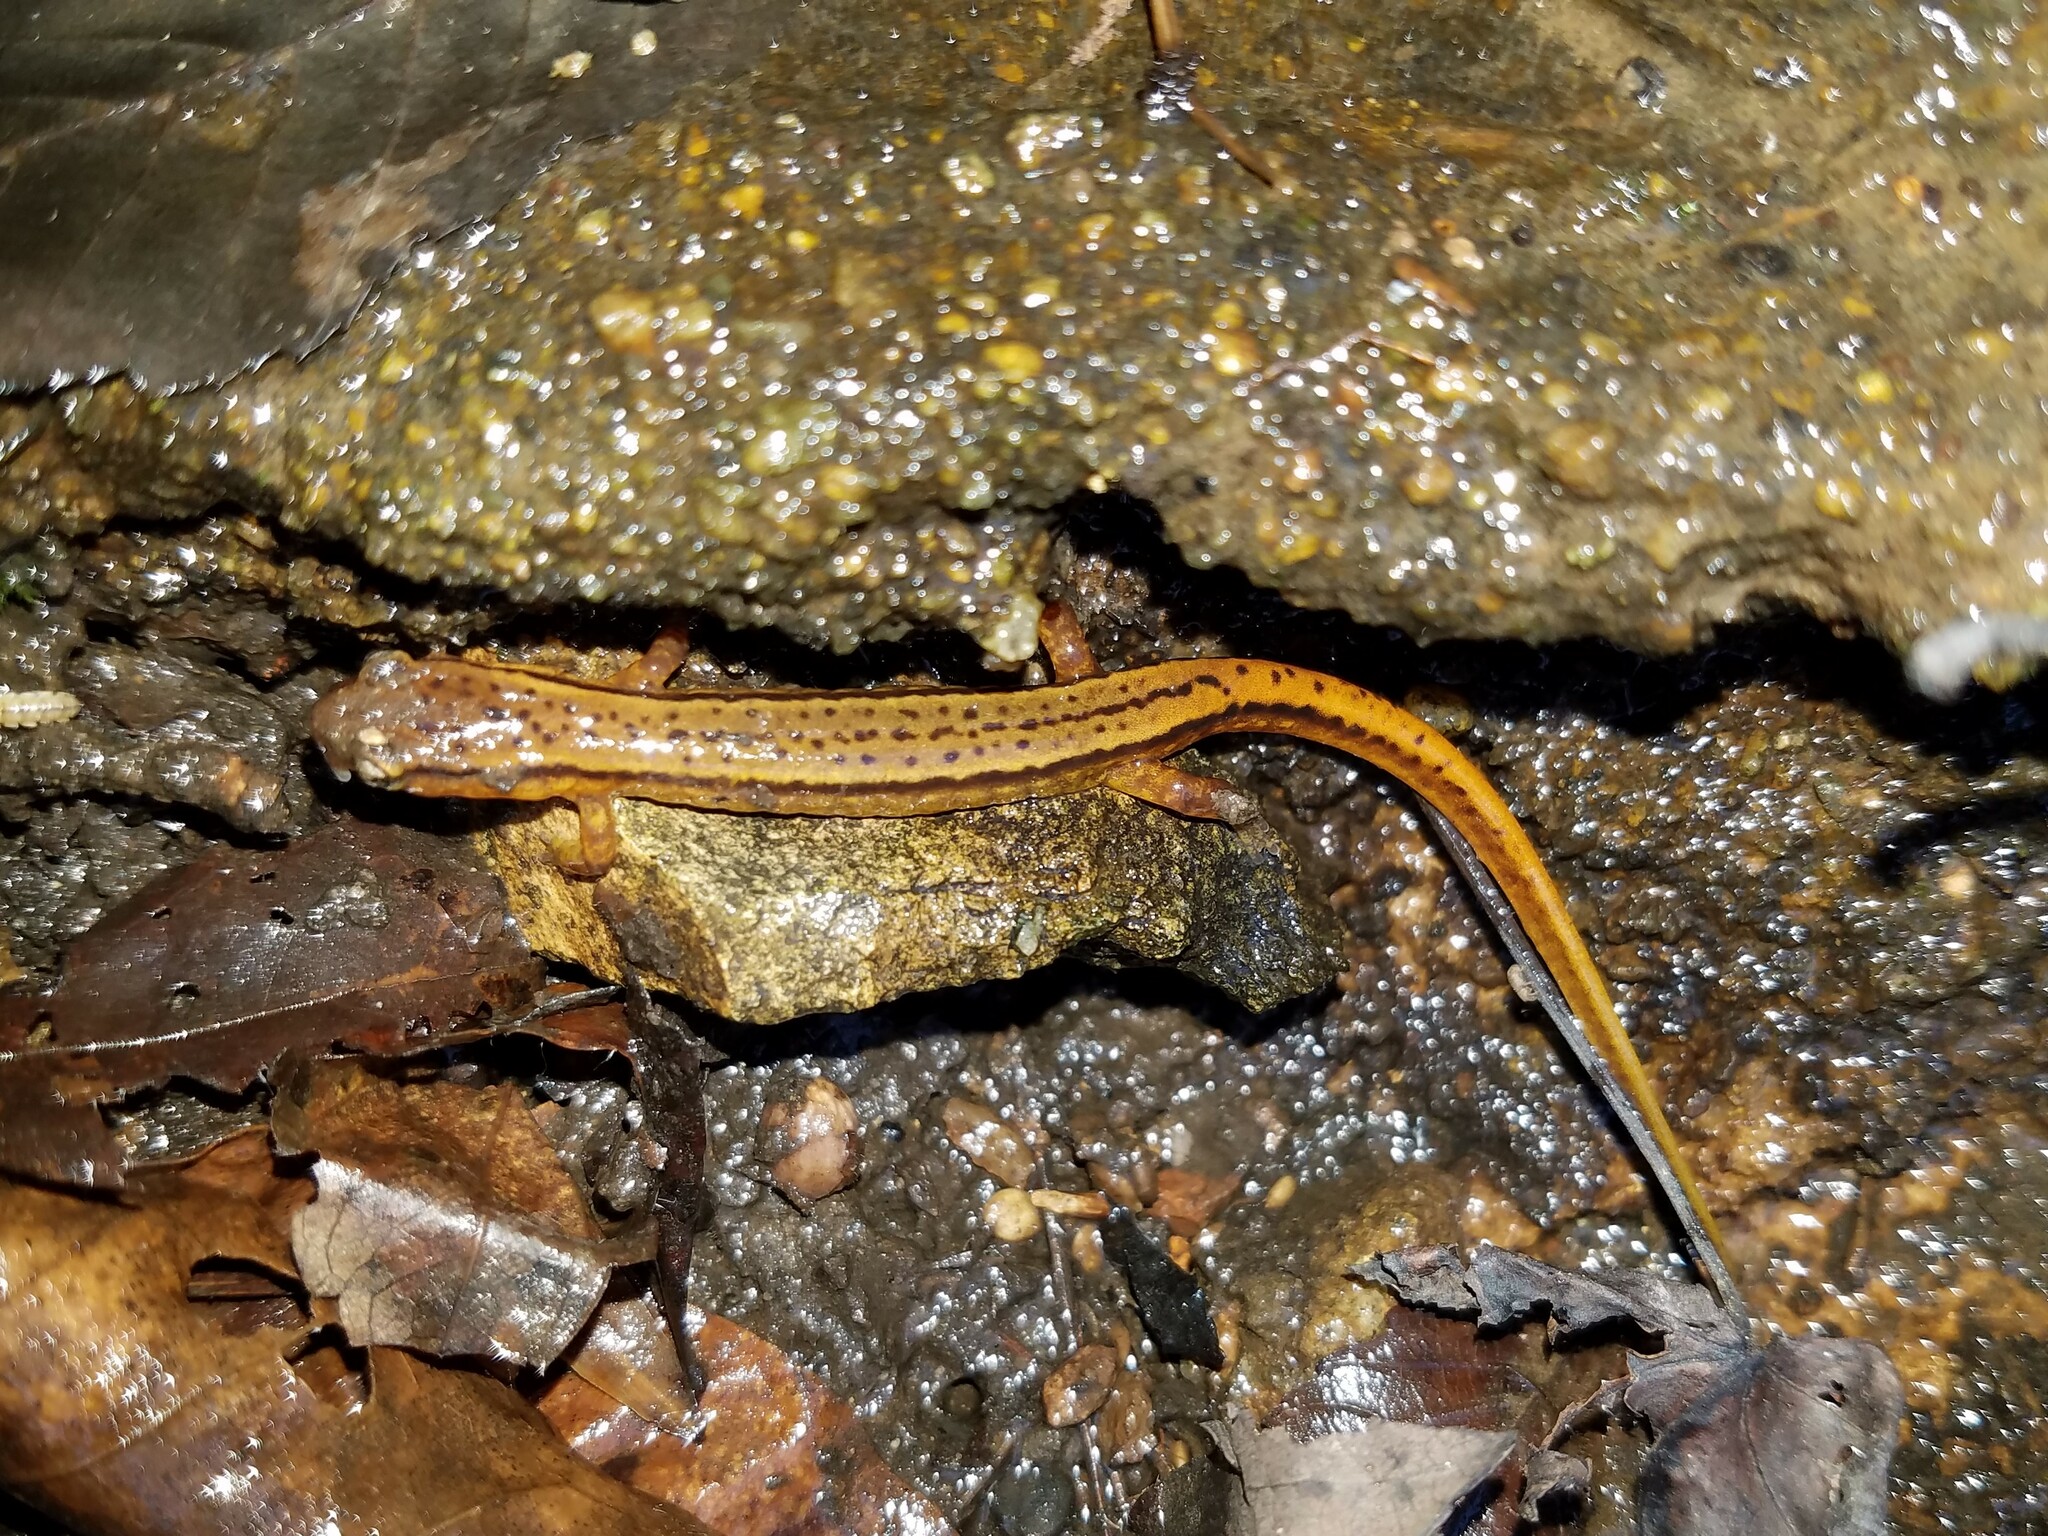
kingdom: Animalia
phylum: Chordata
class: Amphibia
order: Caudata
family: Plethodontidae
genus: Eurycea
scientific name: Eurycea cirrigera
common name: Southern two-lined salamander
